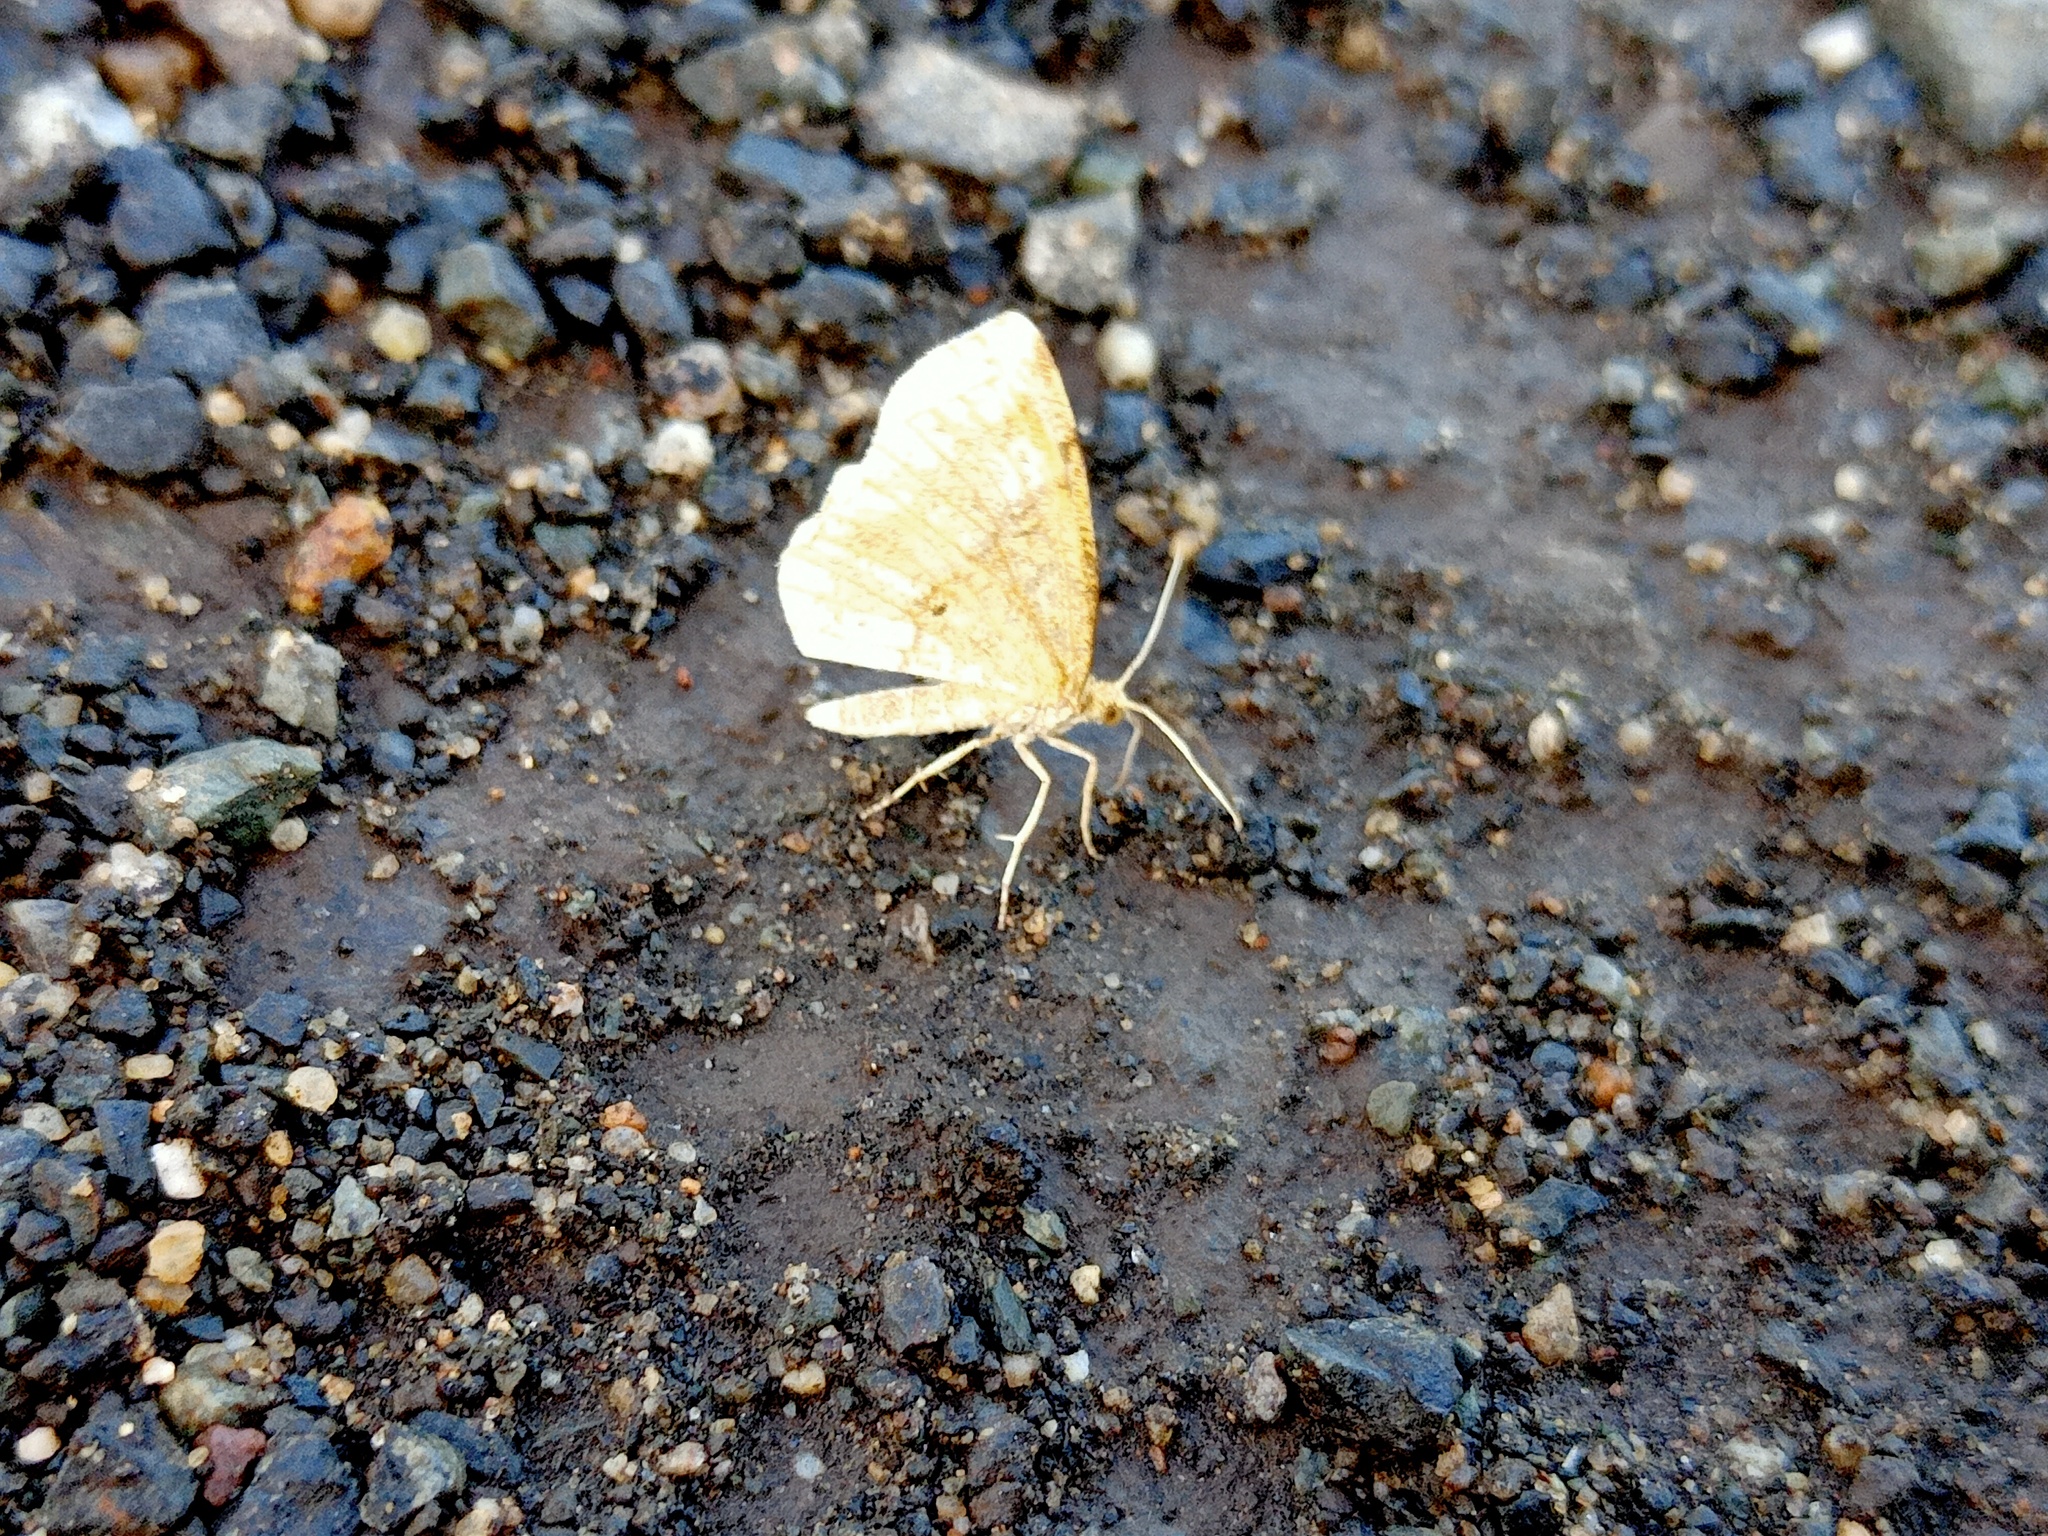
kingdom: Animalia
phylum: Arthropoda
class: Insecta
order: Lepidoptera
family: Geometridae
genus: Cepphis
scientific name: Cepphis advenaria
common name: Little thorn
